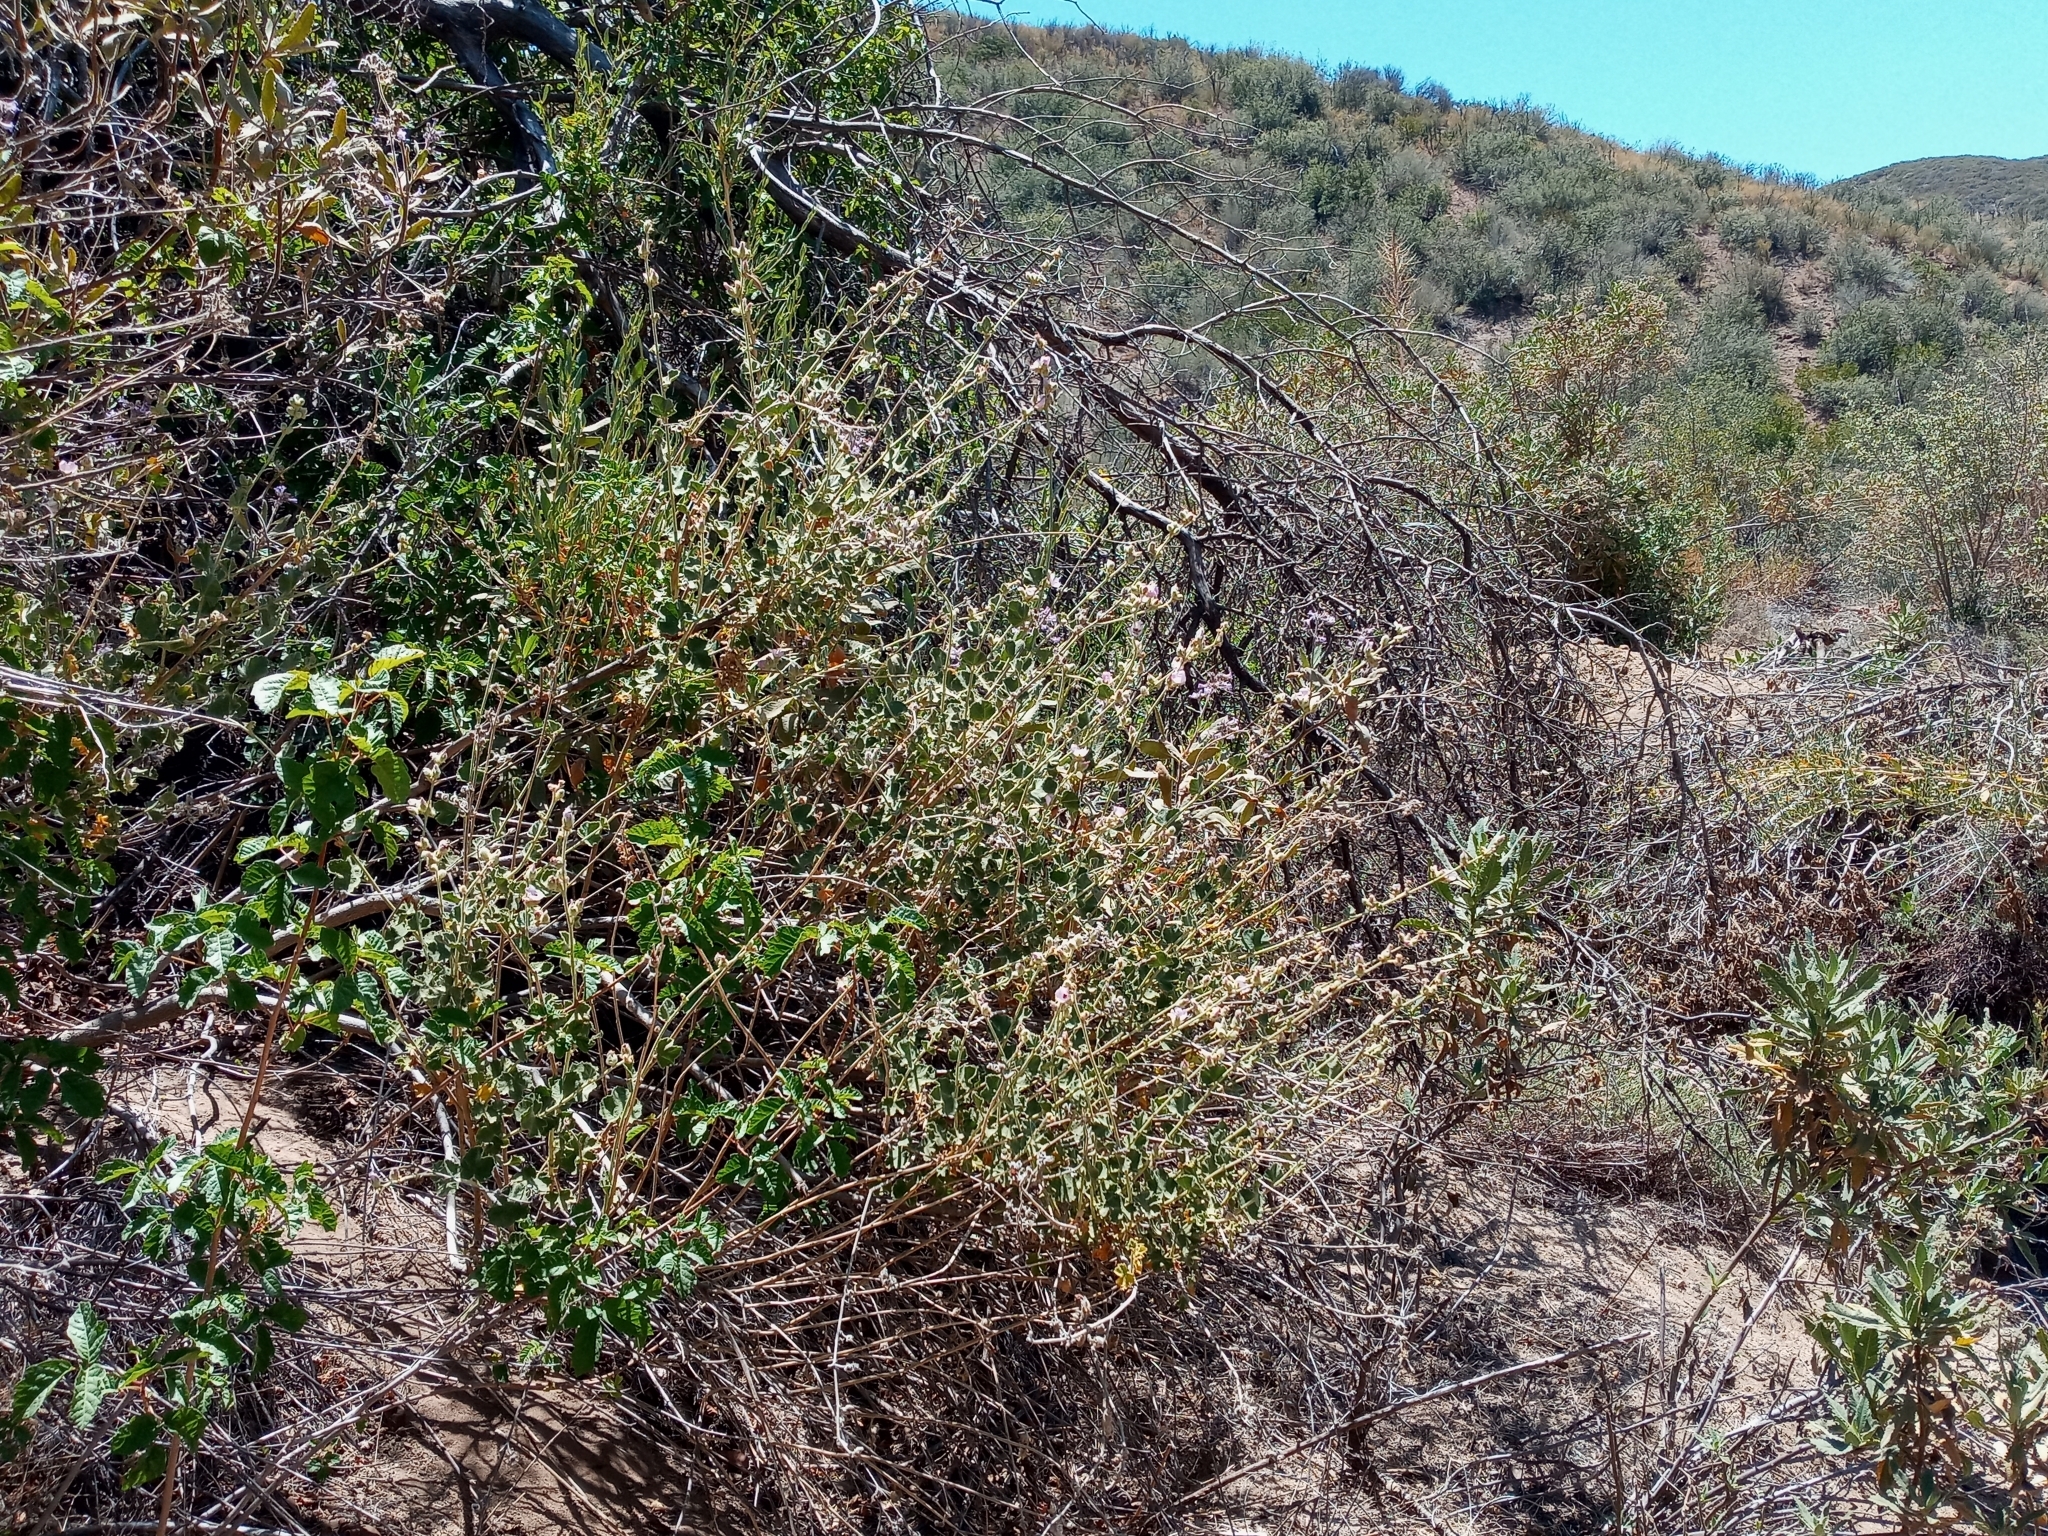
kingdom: Plantae
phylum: Tracheophyta
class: Magnoliopsida
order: Malvales
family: Malvaceae
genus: Malacothamnus
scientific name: Malacothamnus fremontii
